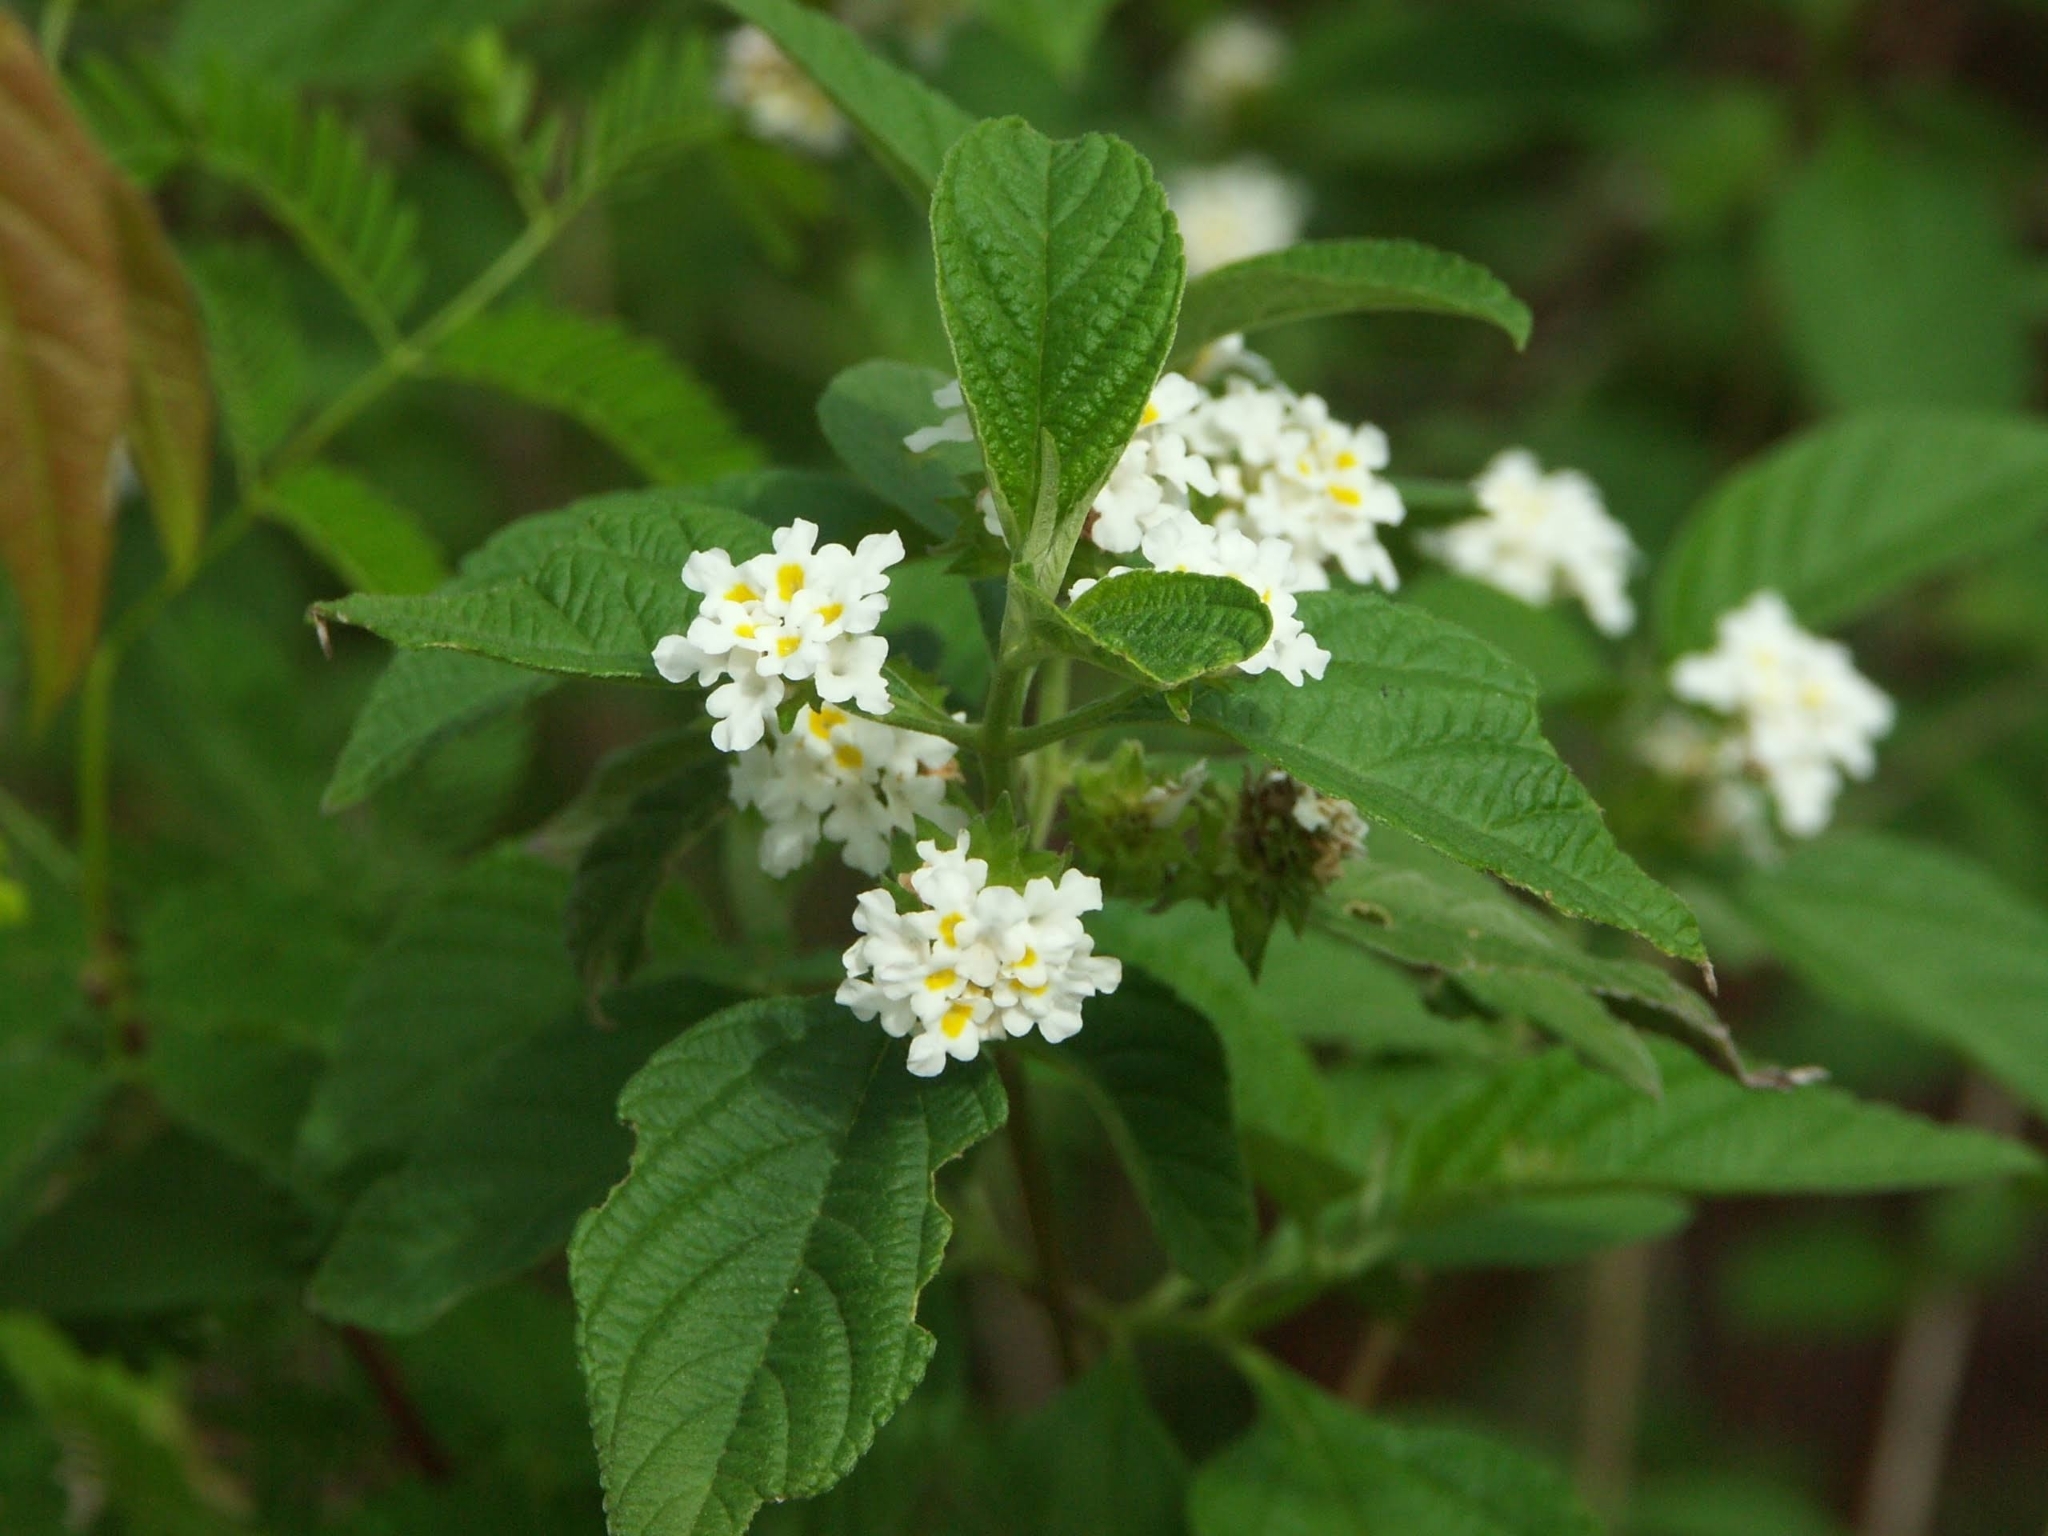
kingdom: Plantae
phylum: Tracheophyta
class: Magnoliopsida
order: Lamiales
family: Verbenaceae
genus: Lantana
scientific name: Lantana canescens
